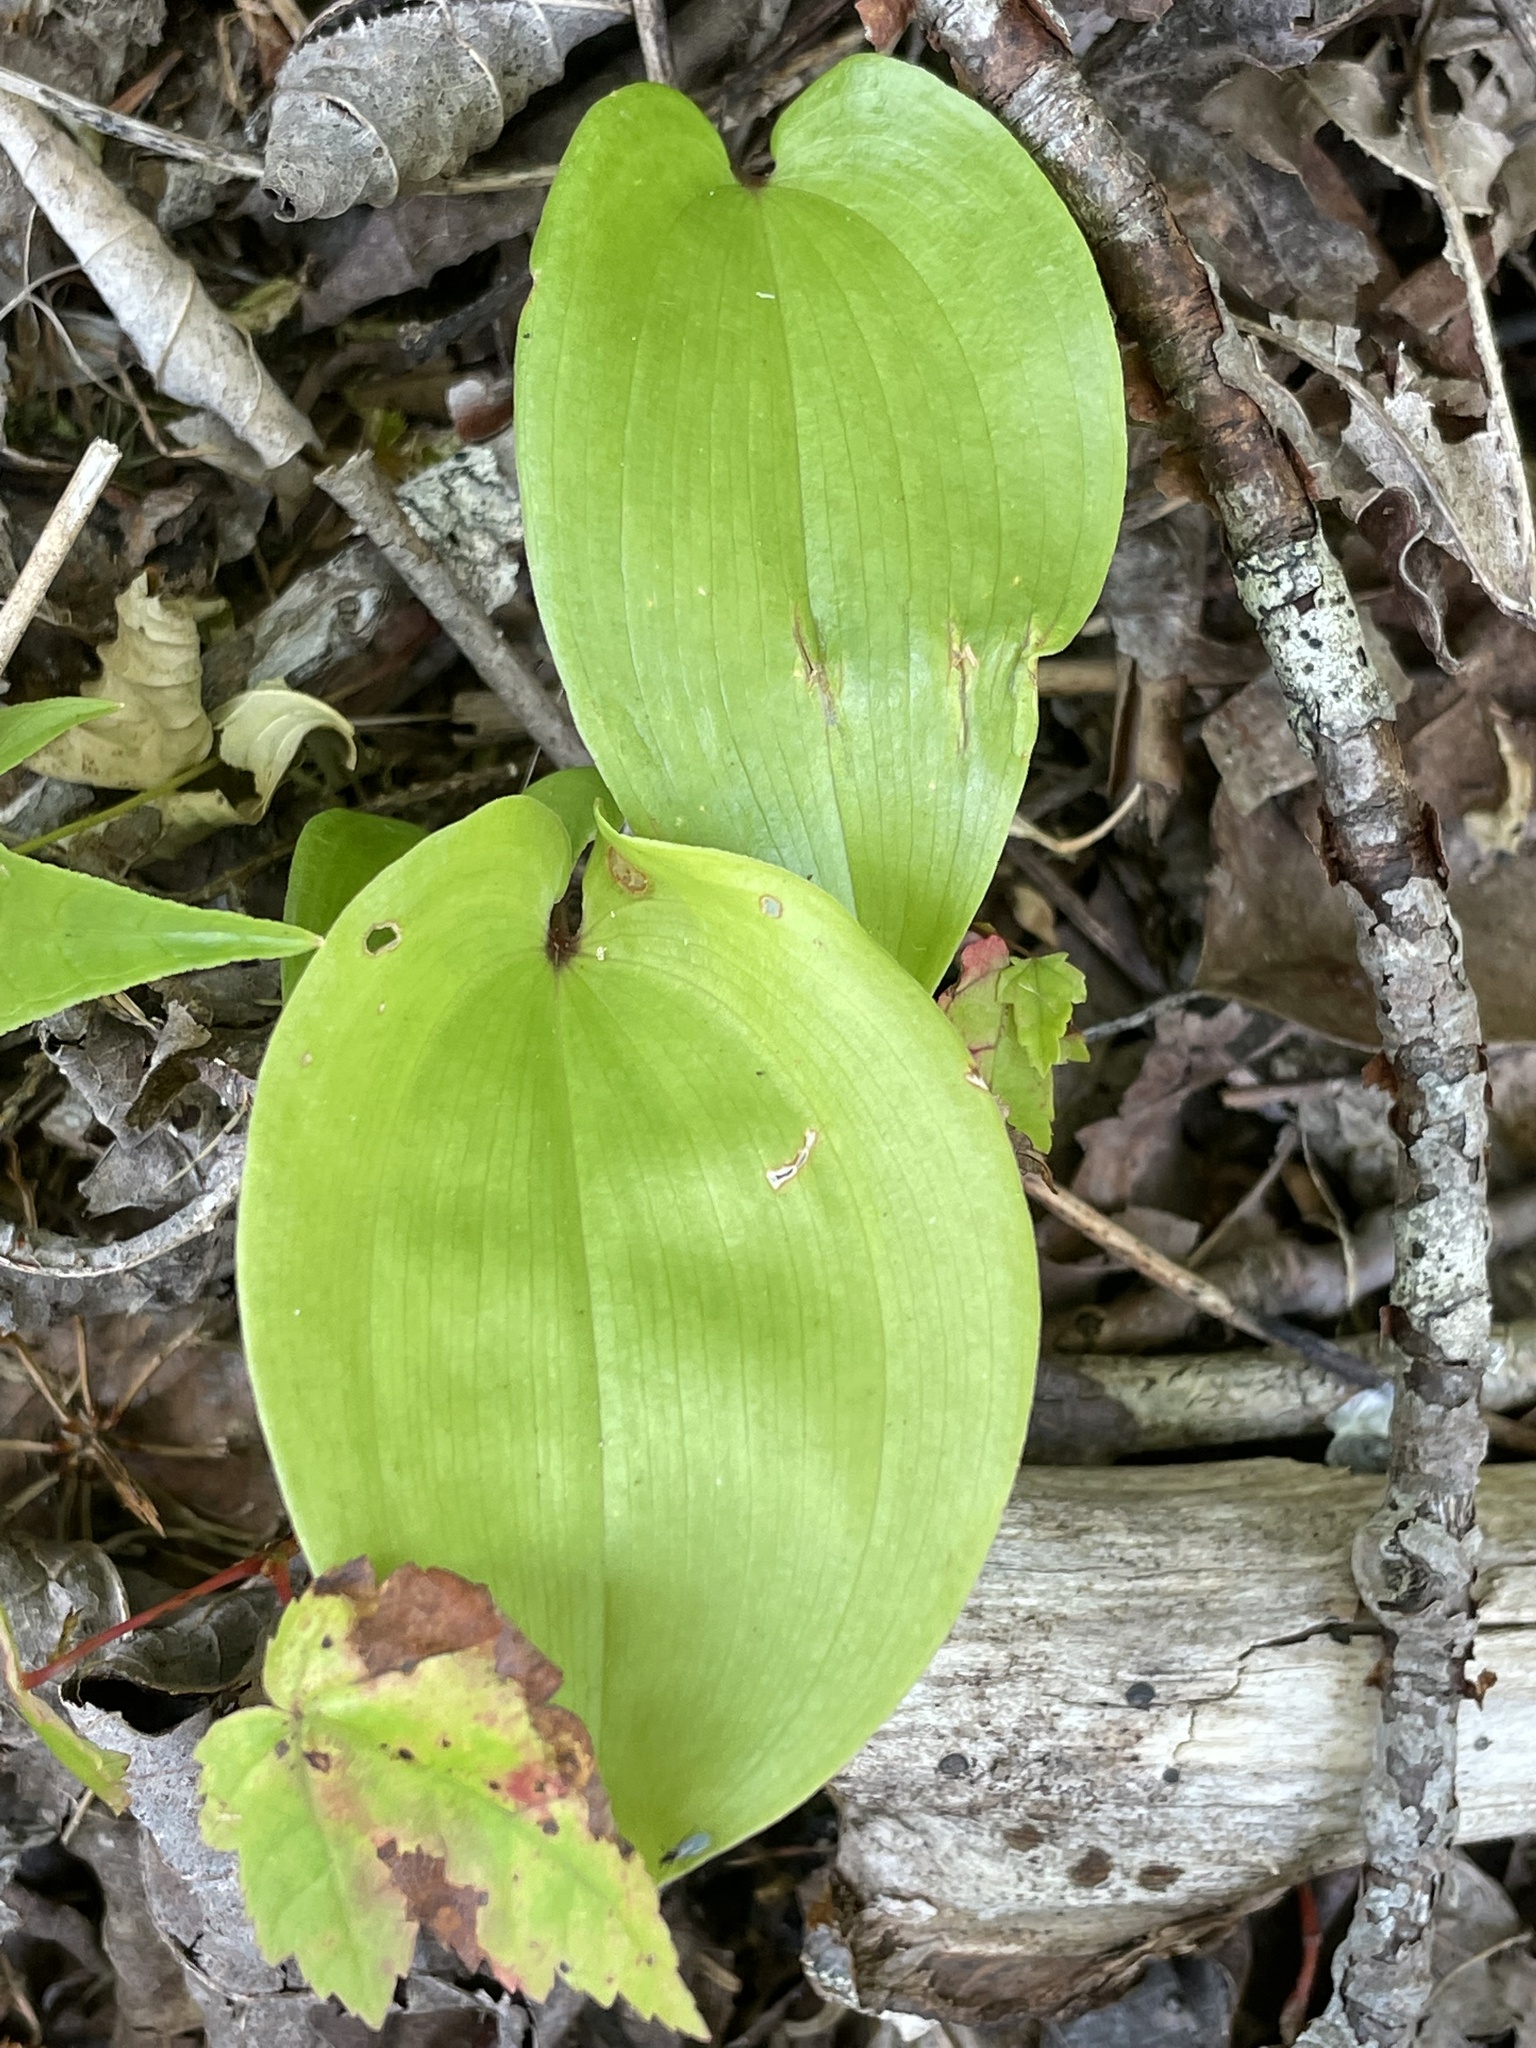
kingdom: Plantae
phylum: Tracheophyta
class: Liliopsida
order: Asparagales
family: Asparagaceae
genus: Maianthemum
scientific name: Maianthemum canadense
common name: False lily-of-the-valley
